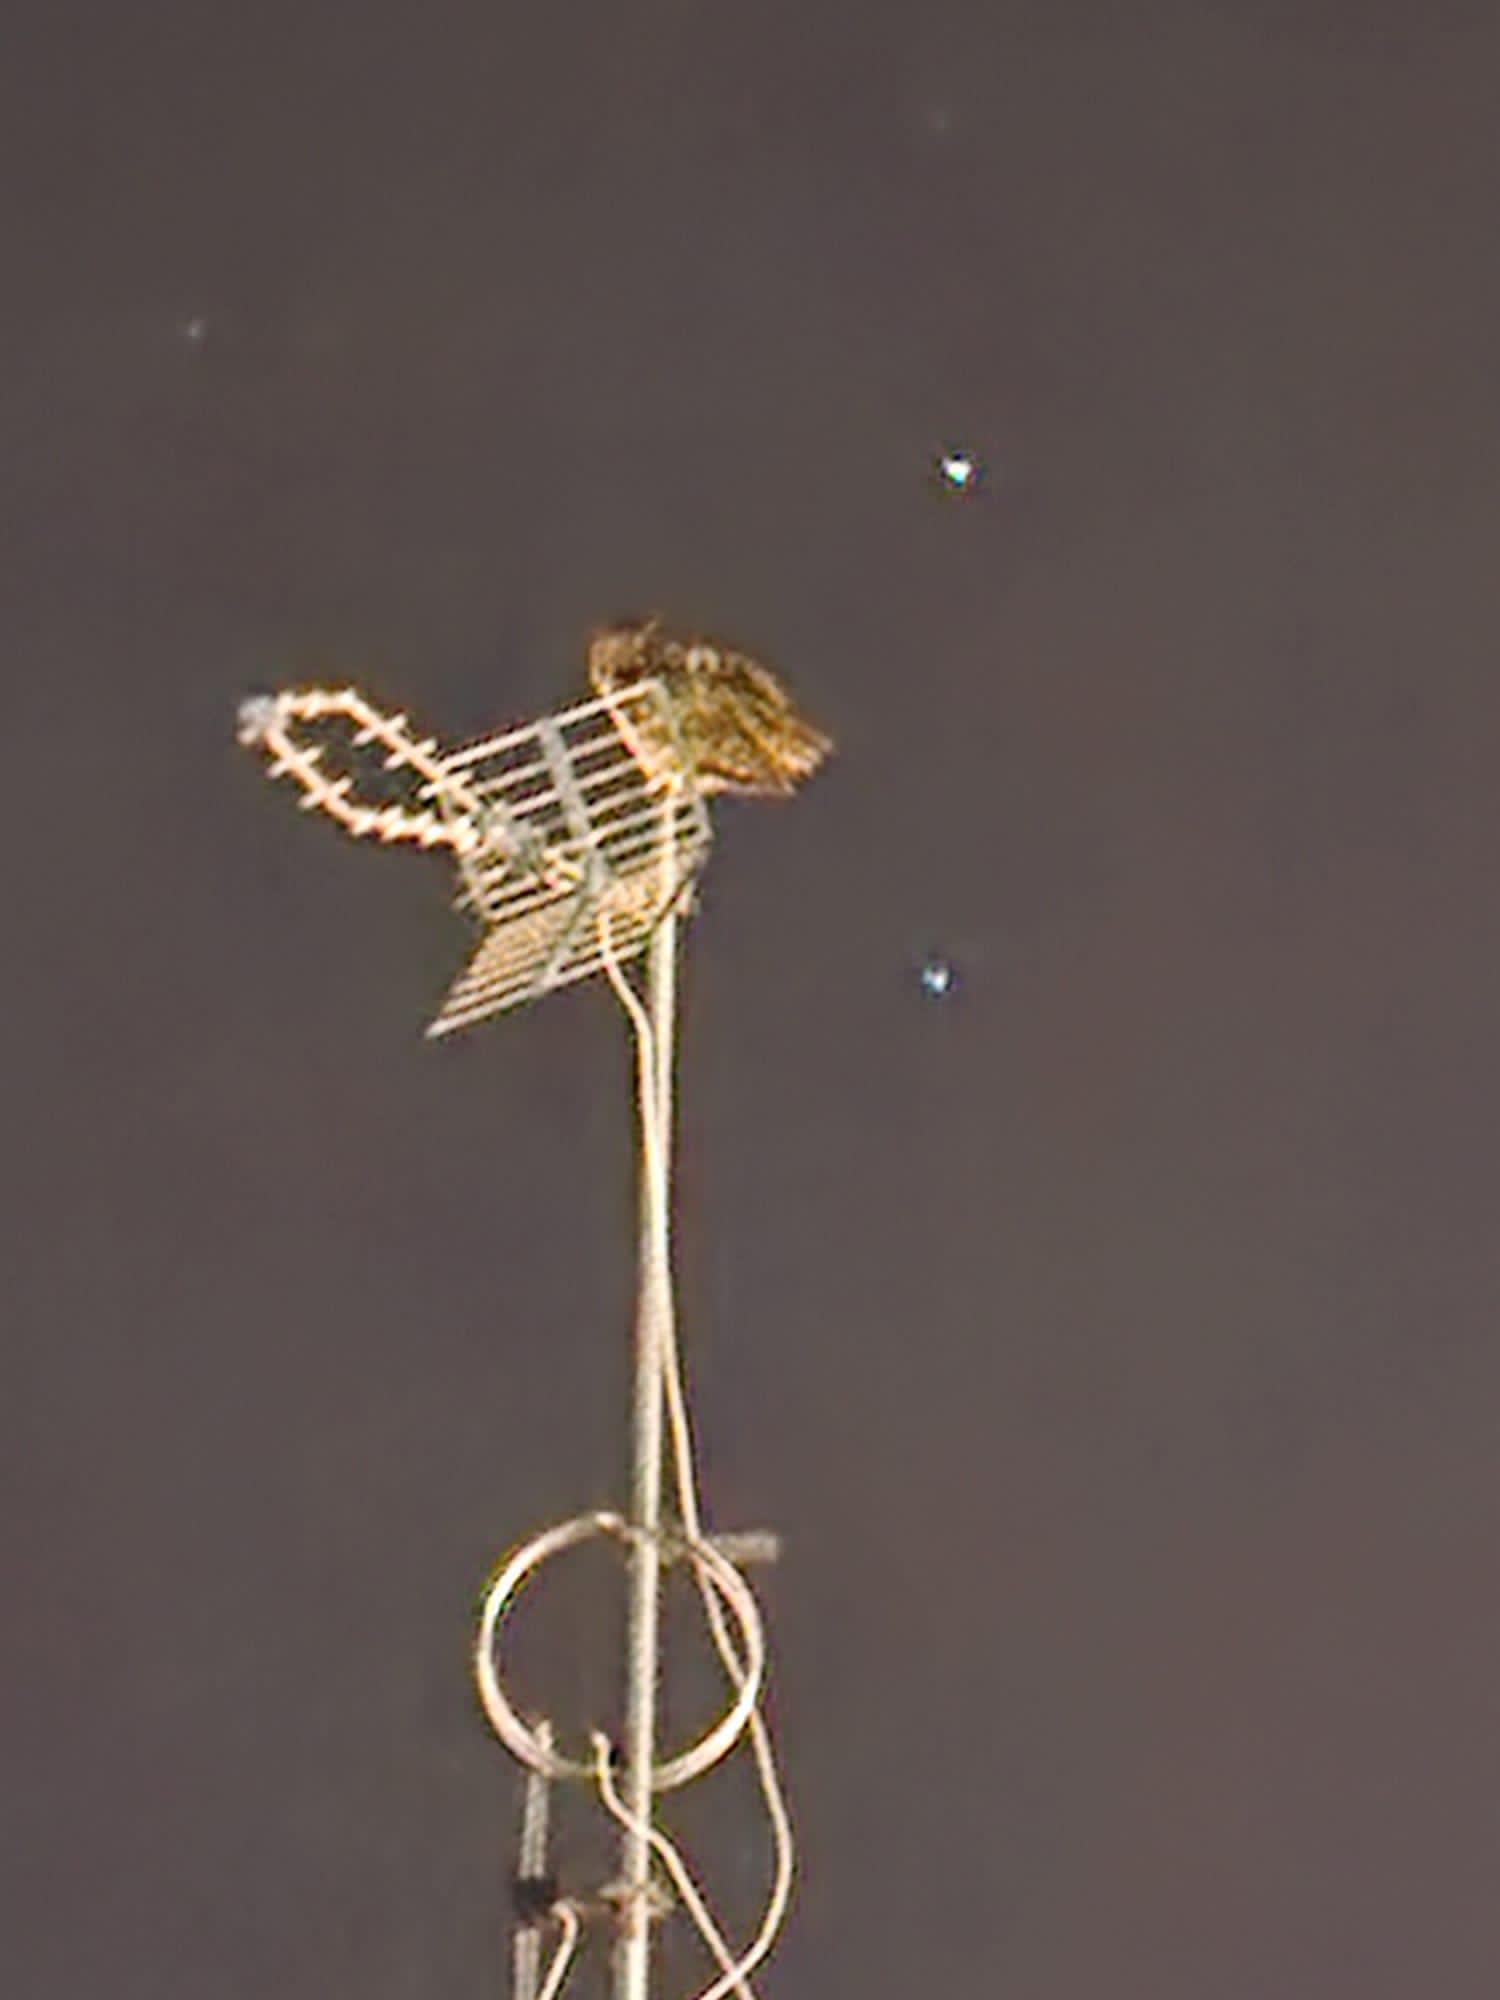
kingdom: Animalia
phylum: Chordata
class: Aves
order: Strigiformes
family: Strigidae
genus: Bubo
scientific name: Bubo bubo
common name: Eurasian eagle-owl
